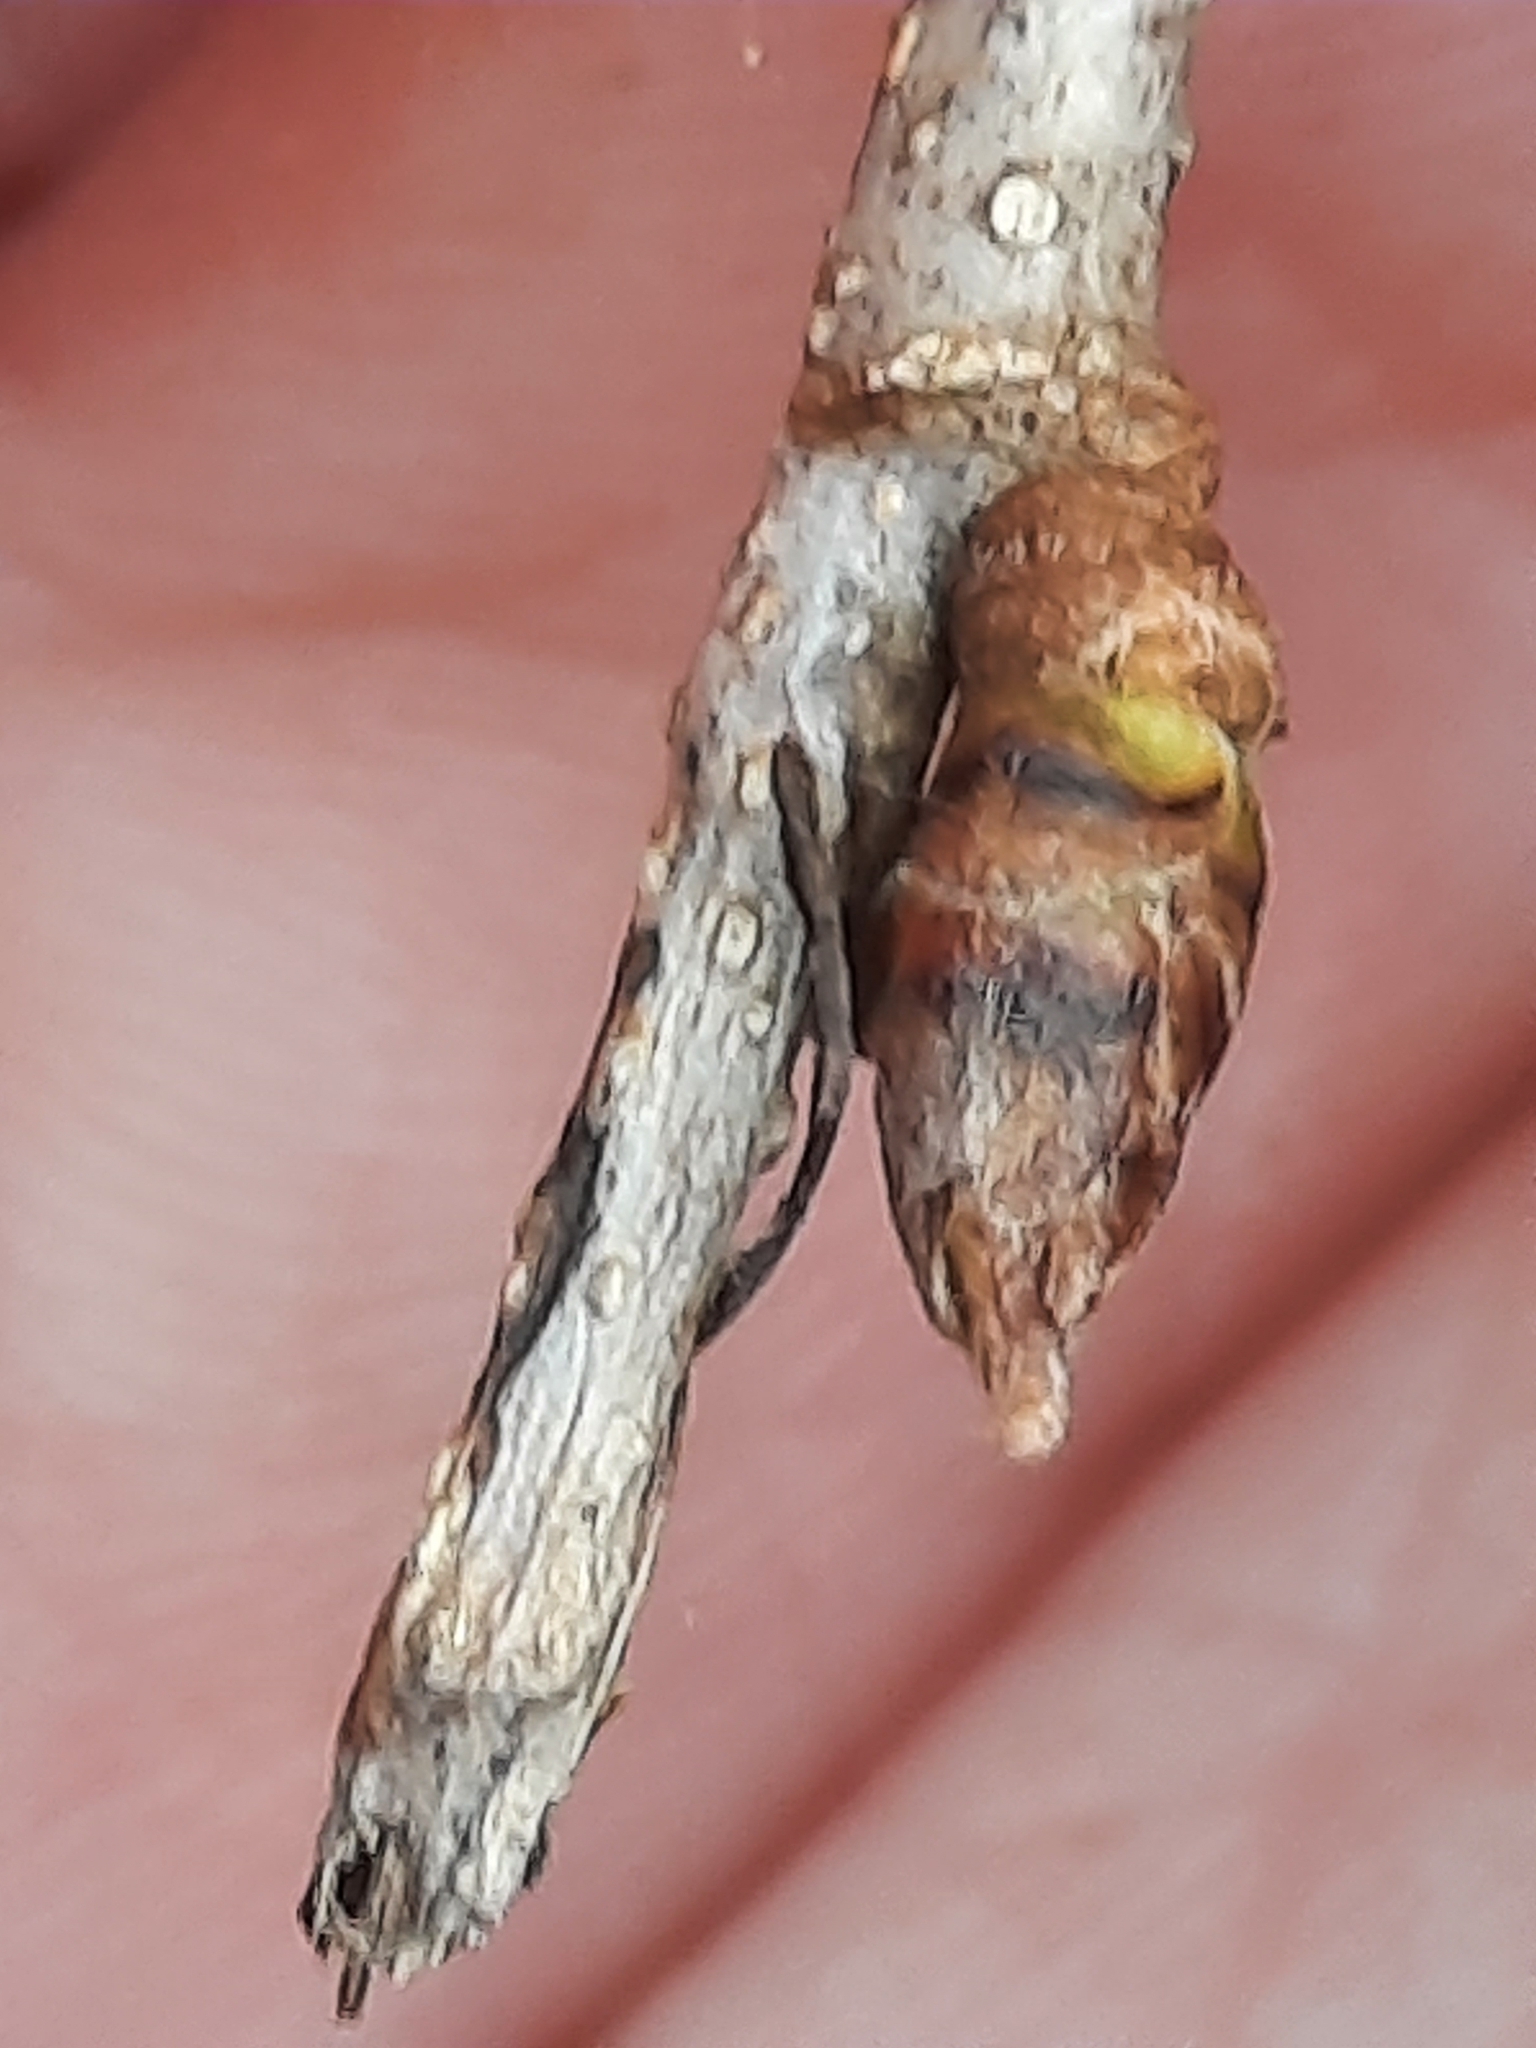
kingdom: Plantae
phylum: Tracheophyta
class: Magnoliopsida
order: Laurales
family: Lauraceae
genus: Lindera
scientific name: Lindera benzoin
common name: Spicebush
